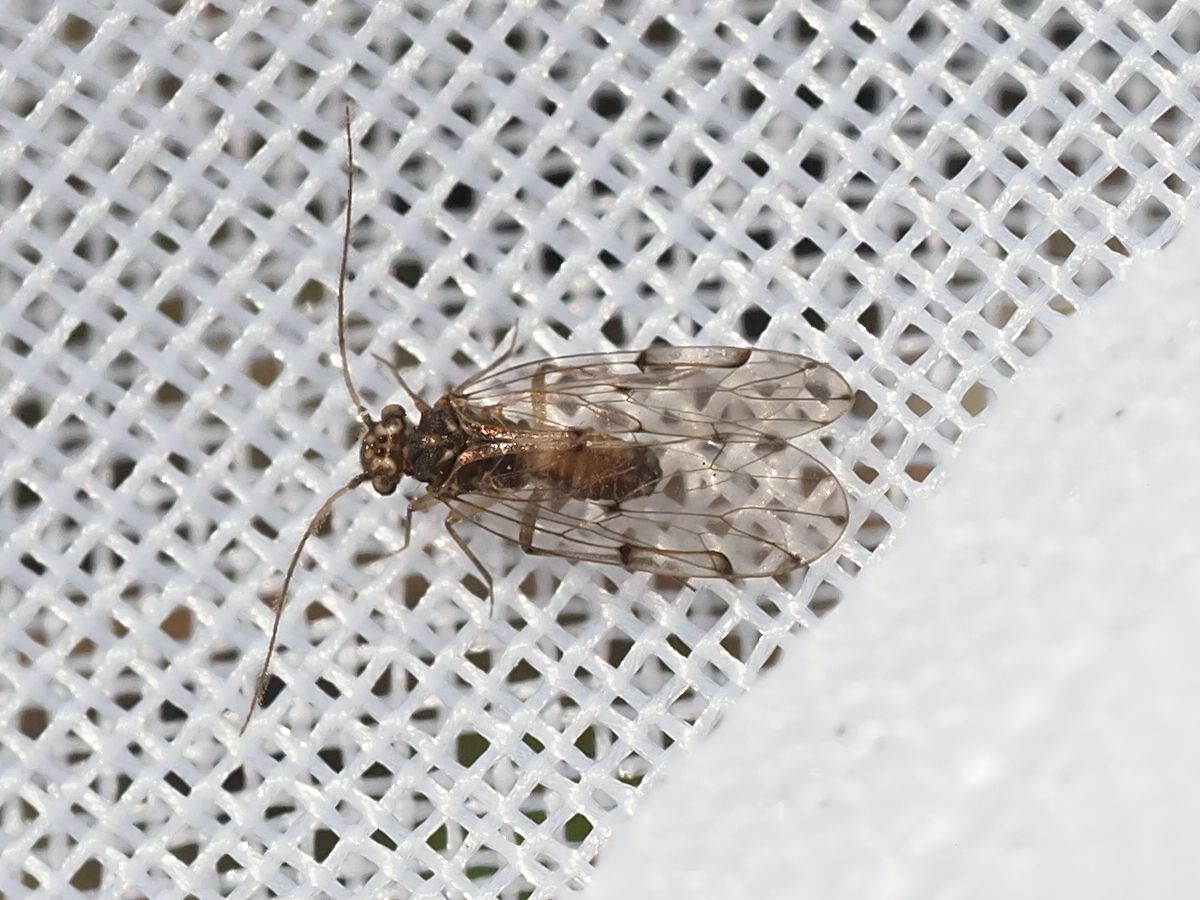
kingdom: Animalia
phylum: Arthropoda
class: Insecta
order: Psocodea
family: Ectopsocidae
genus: Ectopsocus
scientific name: Ectopsocus petersi
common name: Medium-sized bark louse
